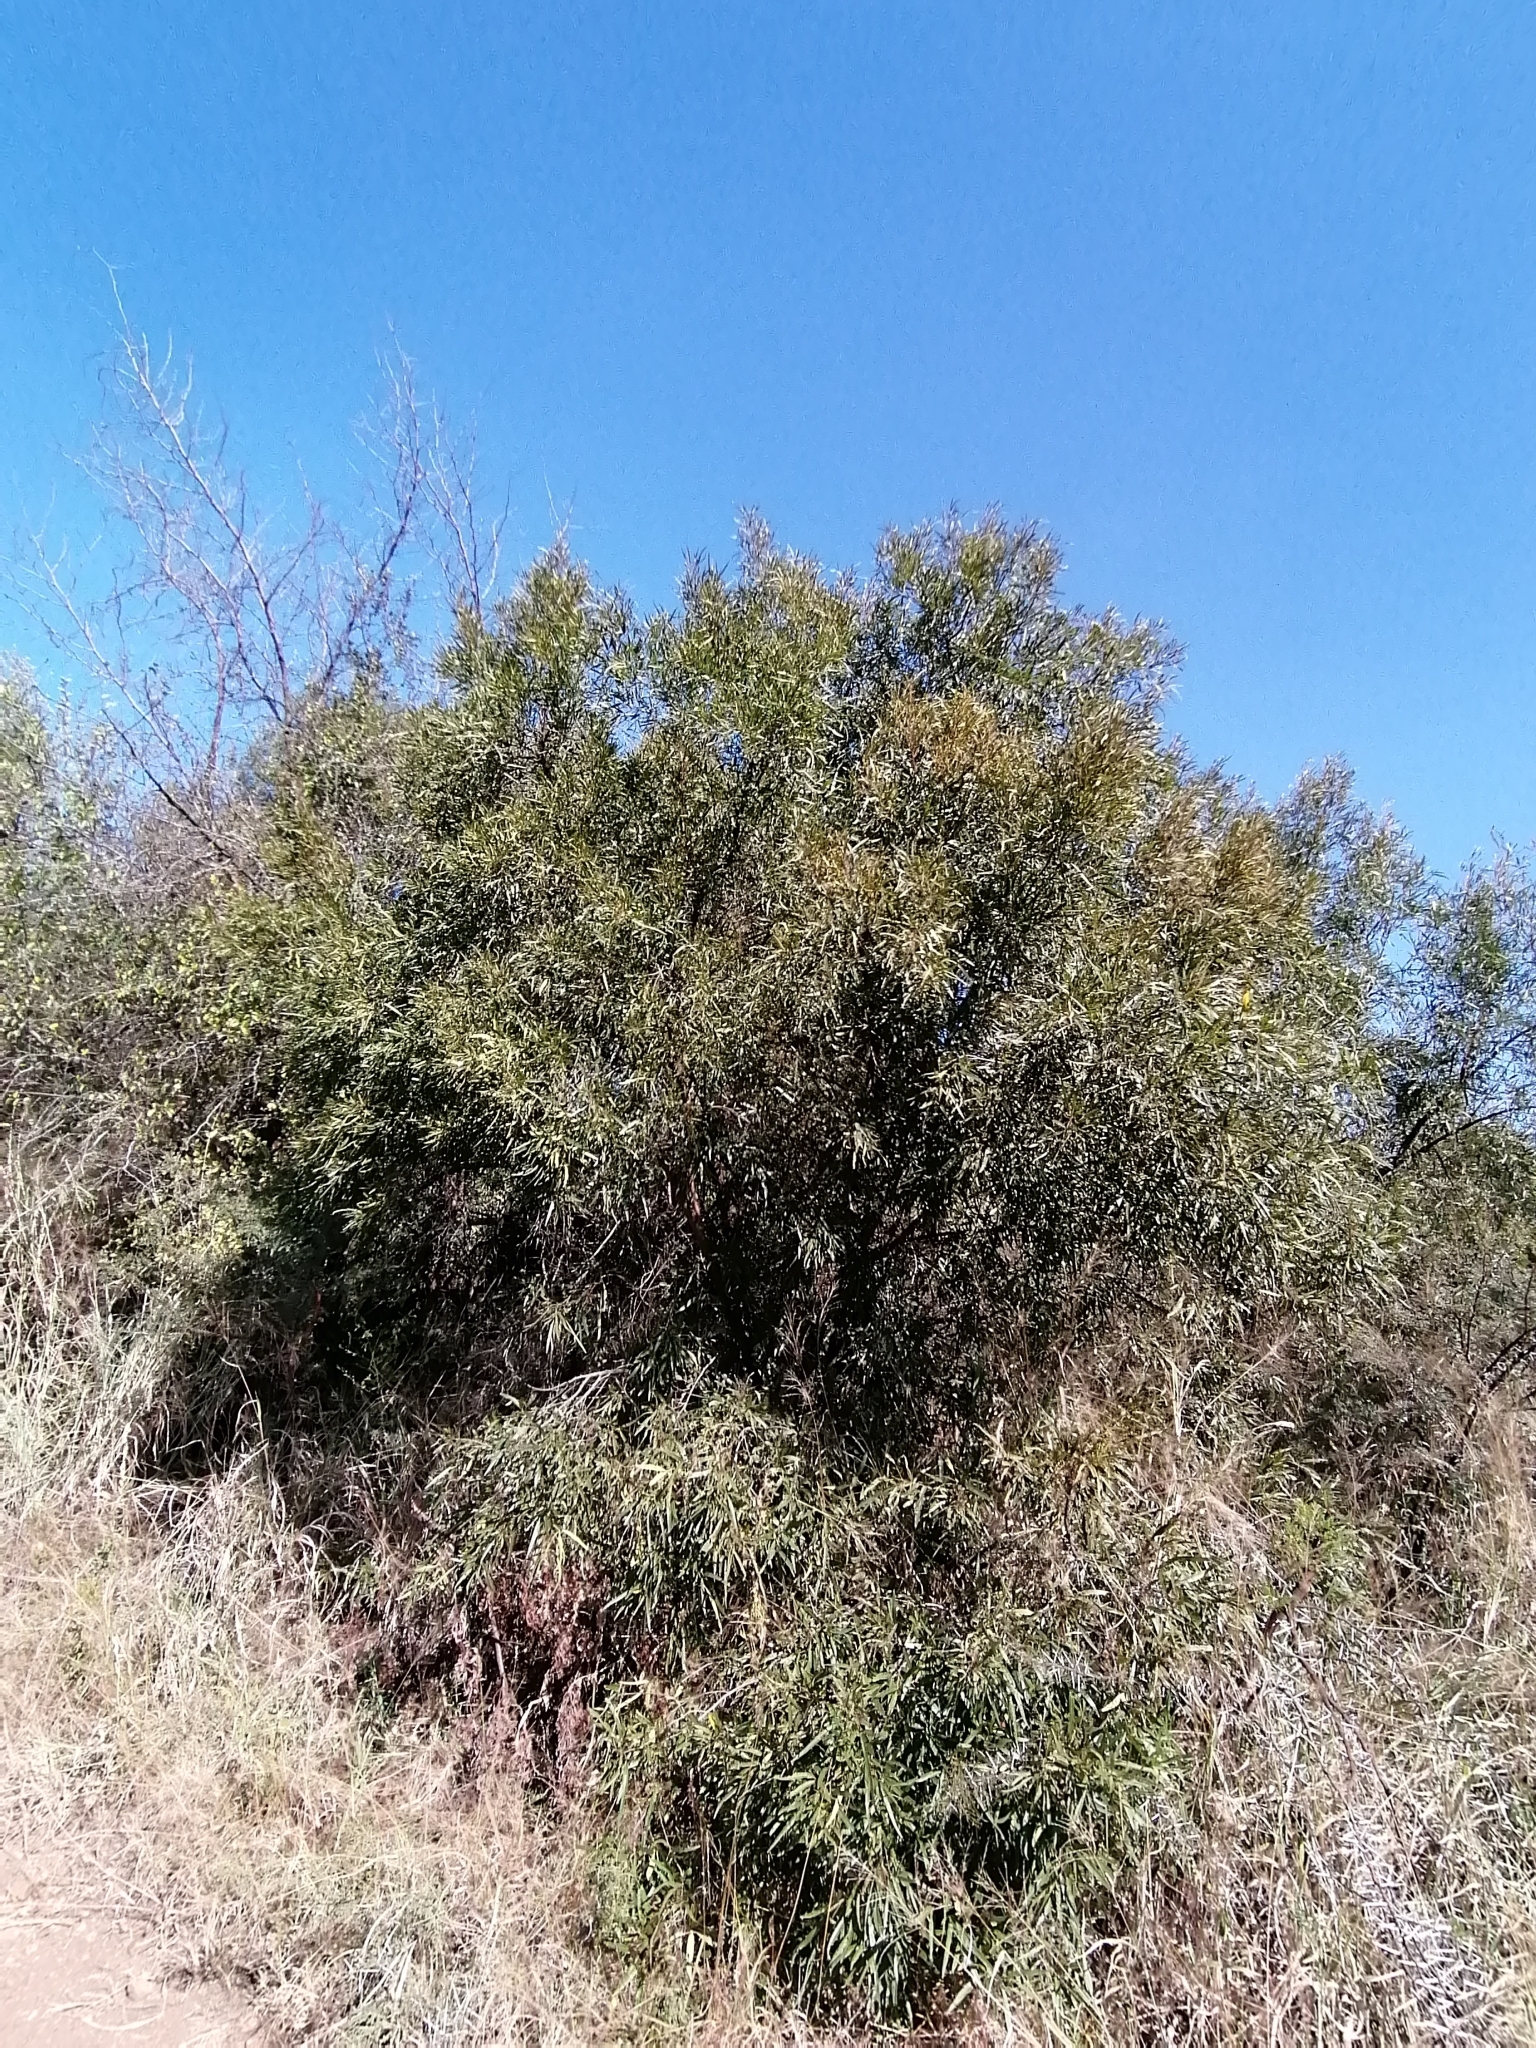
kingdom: Plantae
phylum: Tracheophyta
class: Magnoliopsida
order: Sapindales
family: Anacardiaceae
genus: Searsia
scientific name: Searsia lancea
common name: Cashew
